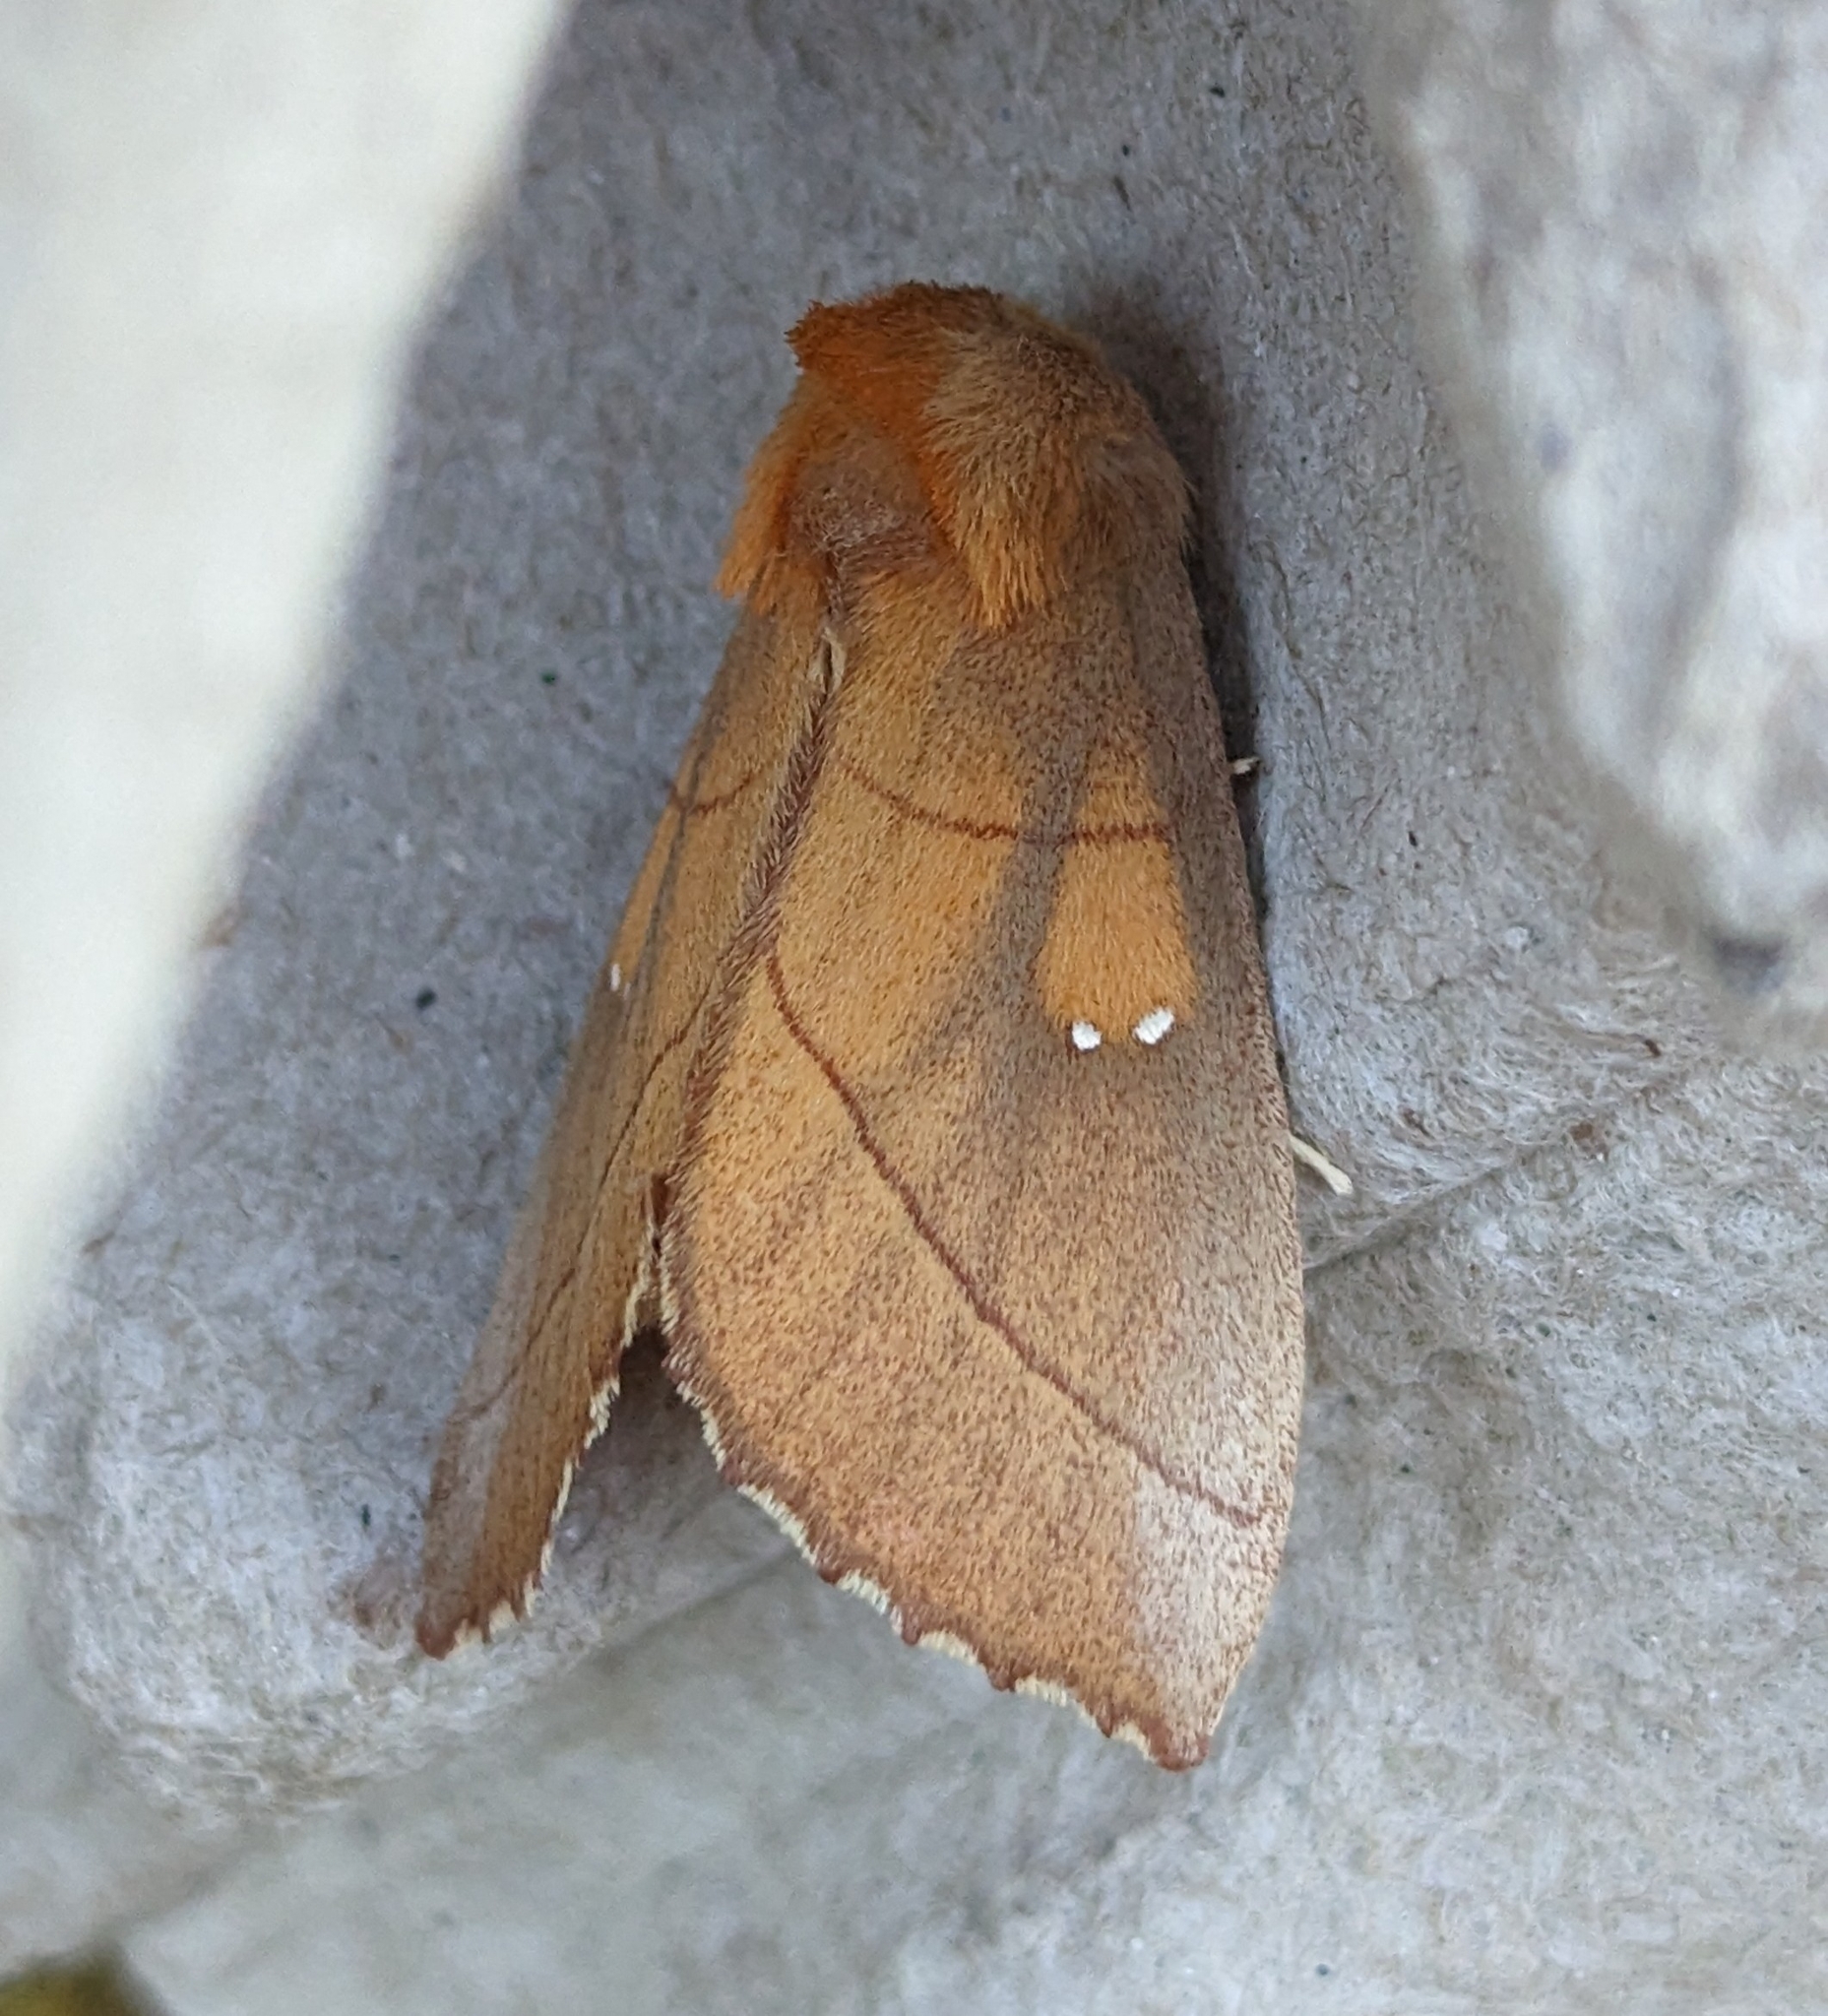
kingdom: Animalia
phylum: Arthropoda
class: Insecta
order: Lepidoptera
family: Notodontidae
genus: Nadata
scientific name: Nadata gibbosa
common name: White-dotted prominent
